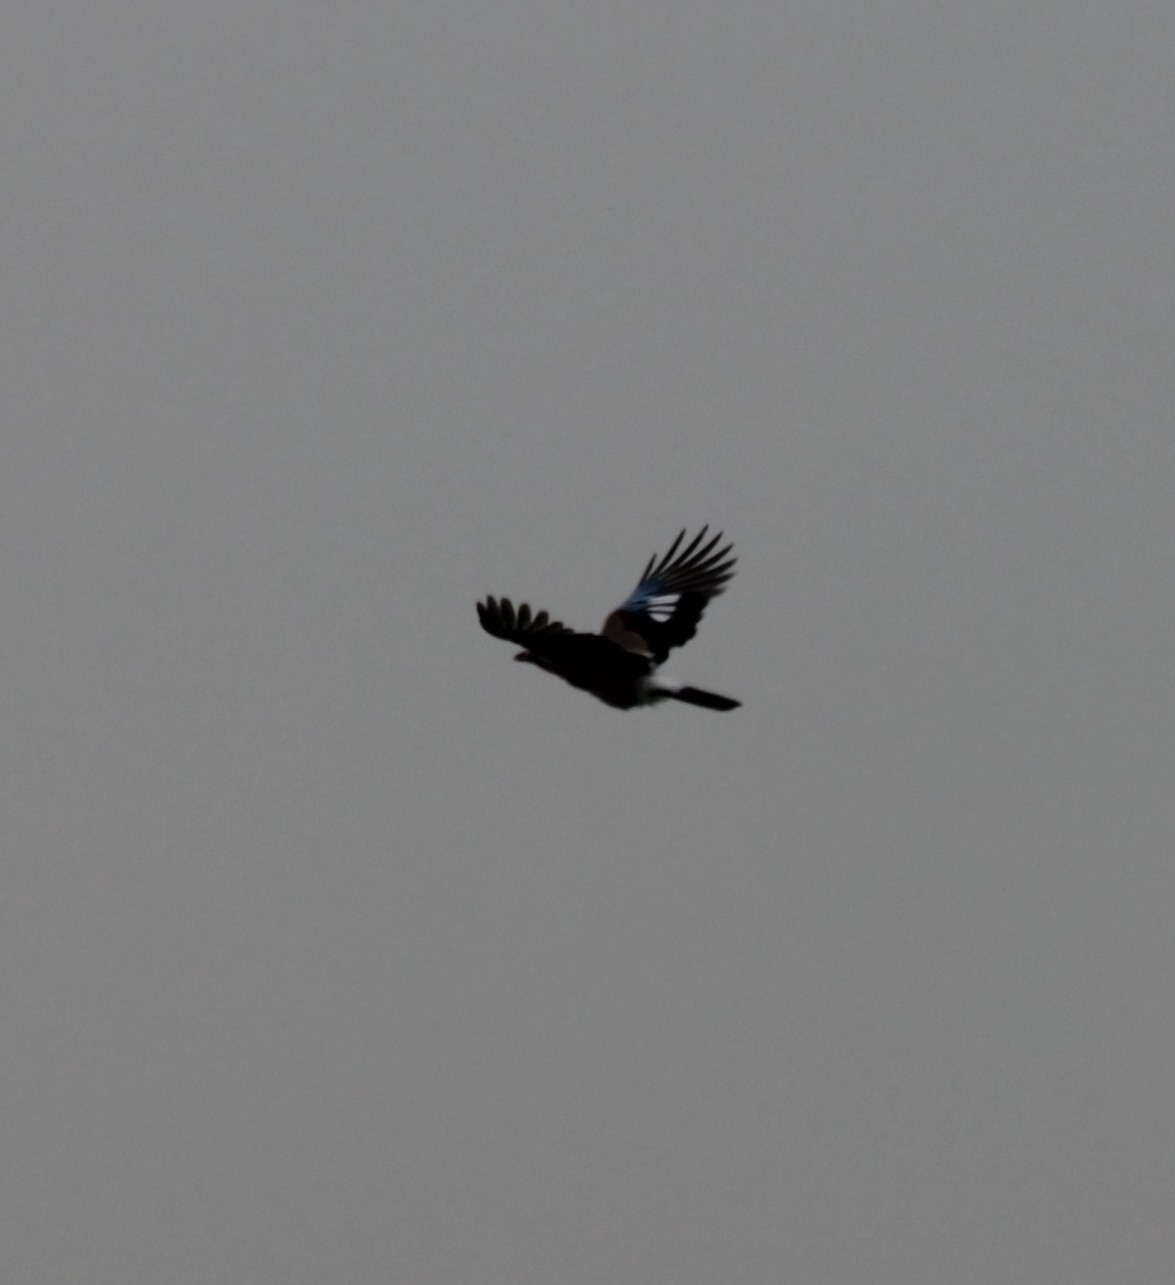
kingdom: Animalia
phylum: Chordata
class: Aves
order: Passeriformes
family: Corvidae
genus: Garrulus
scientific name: Garrulus glandarius
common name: Eurasian jay
